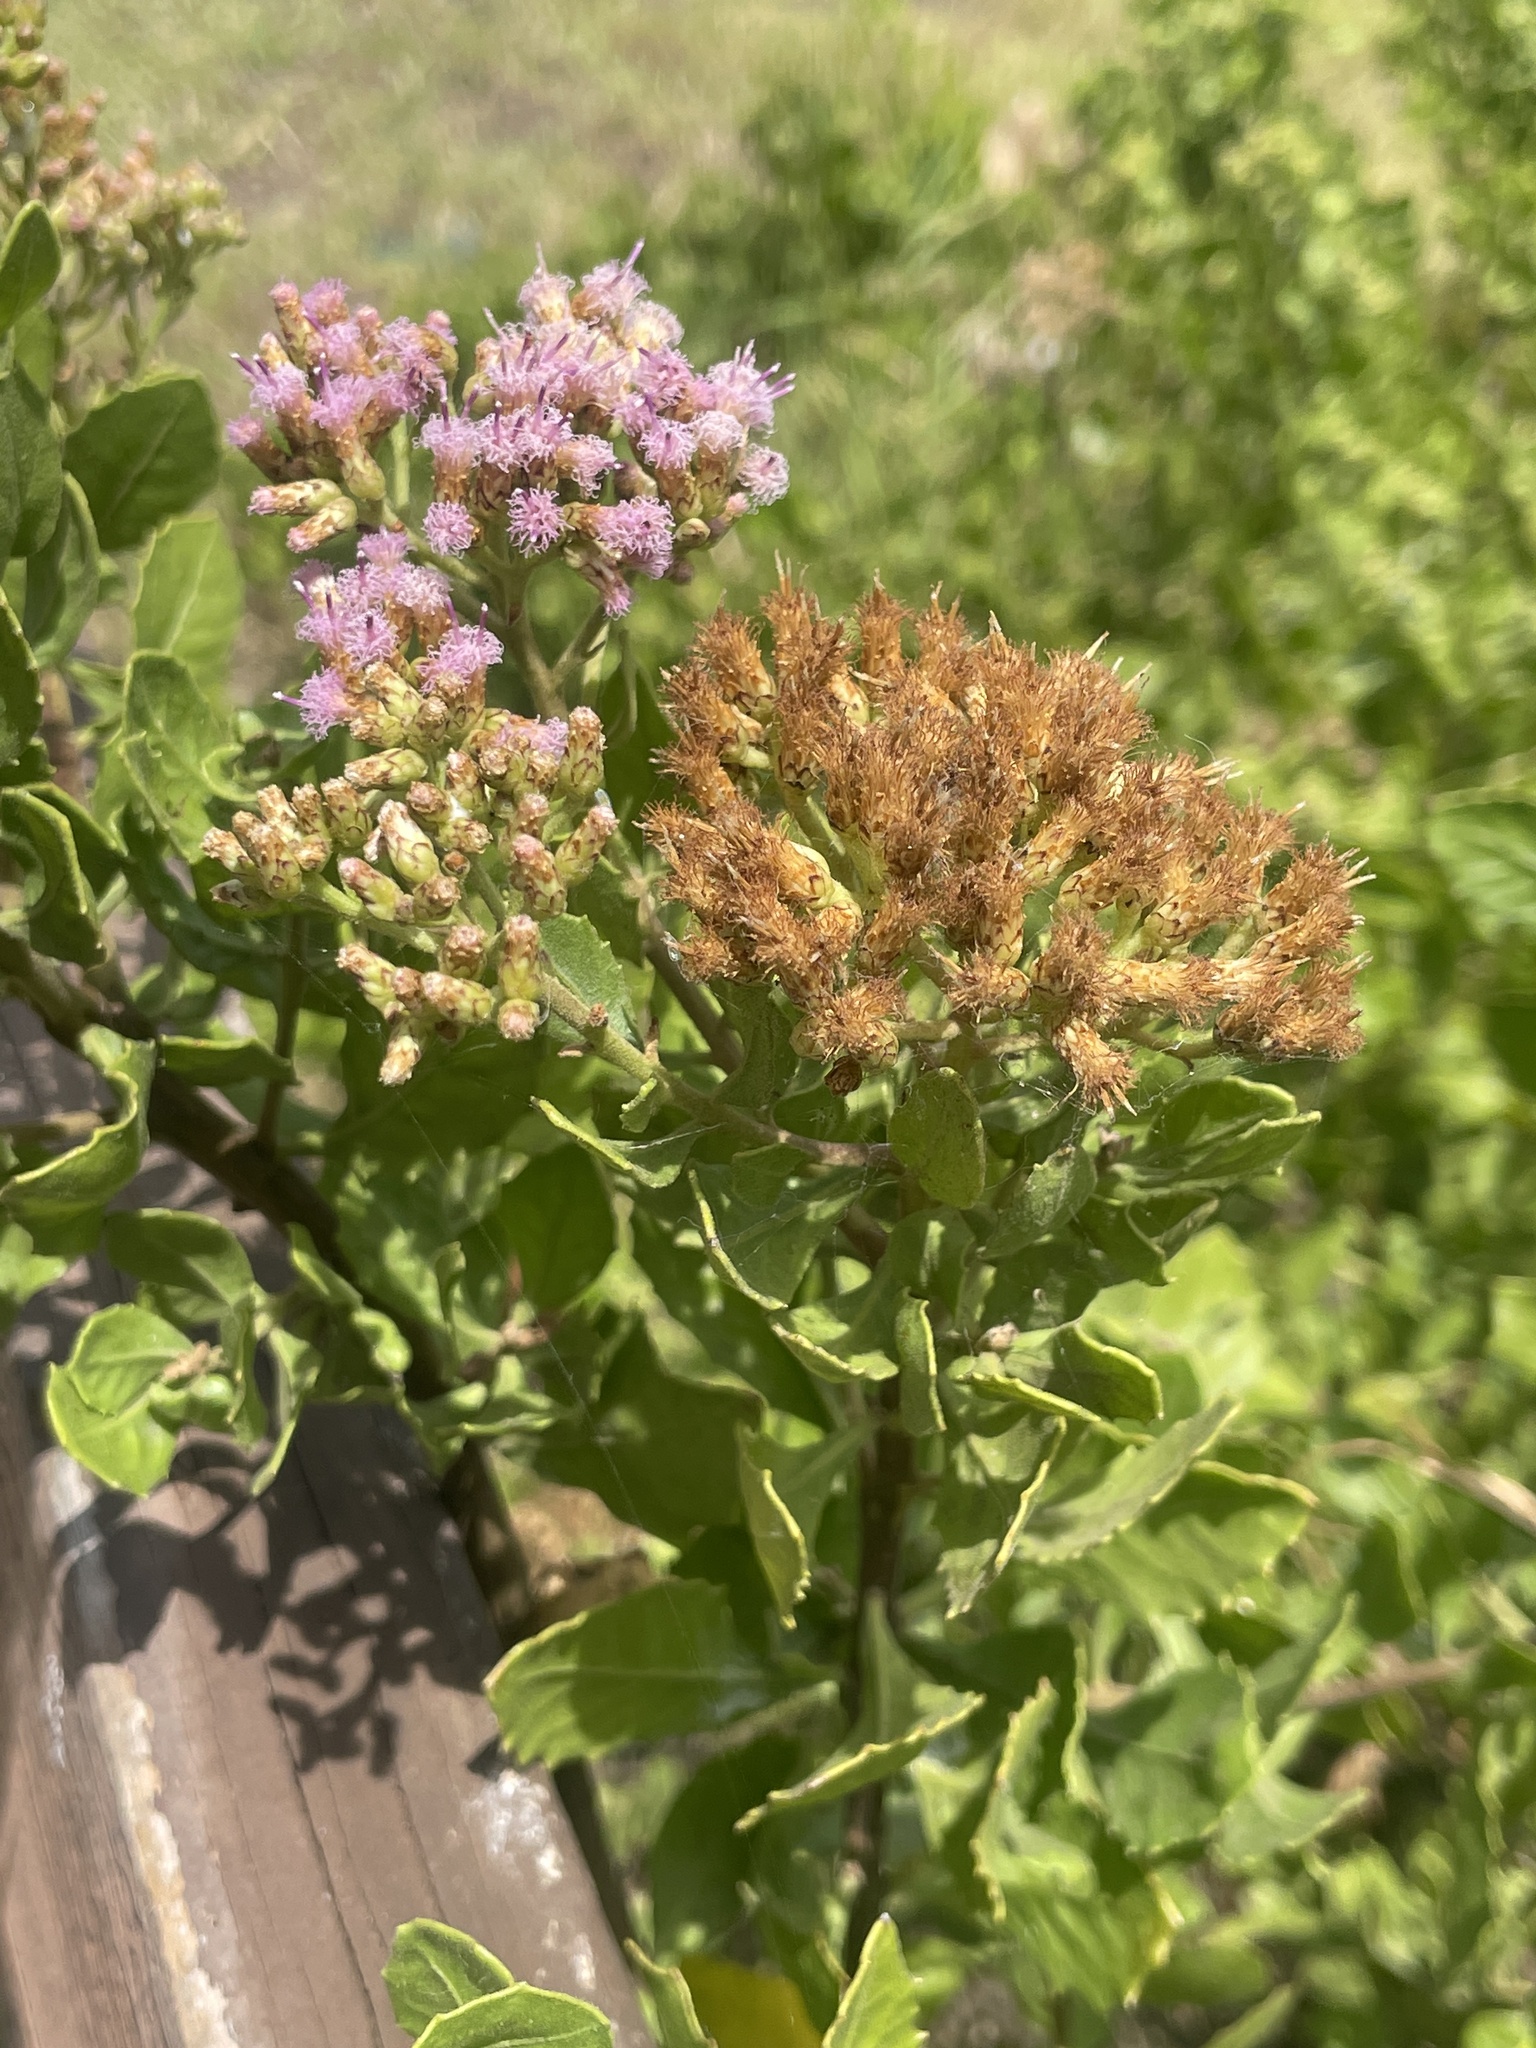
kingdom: Plantae
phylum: Tracheophyta
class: Magnoliopsida
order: Asterales
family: Asteraceae
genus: Pluchea
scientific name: Pluchea indica
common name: Indian fleabane
